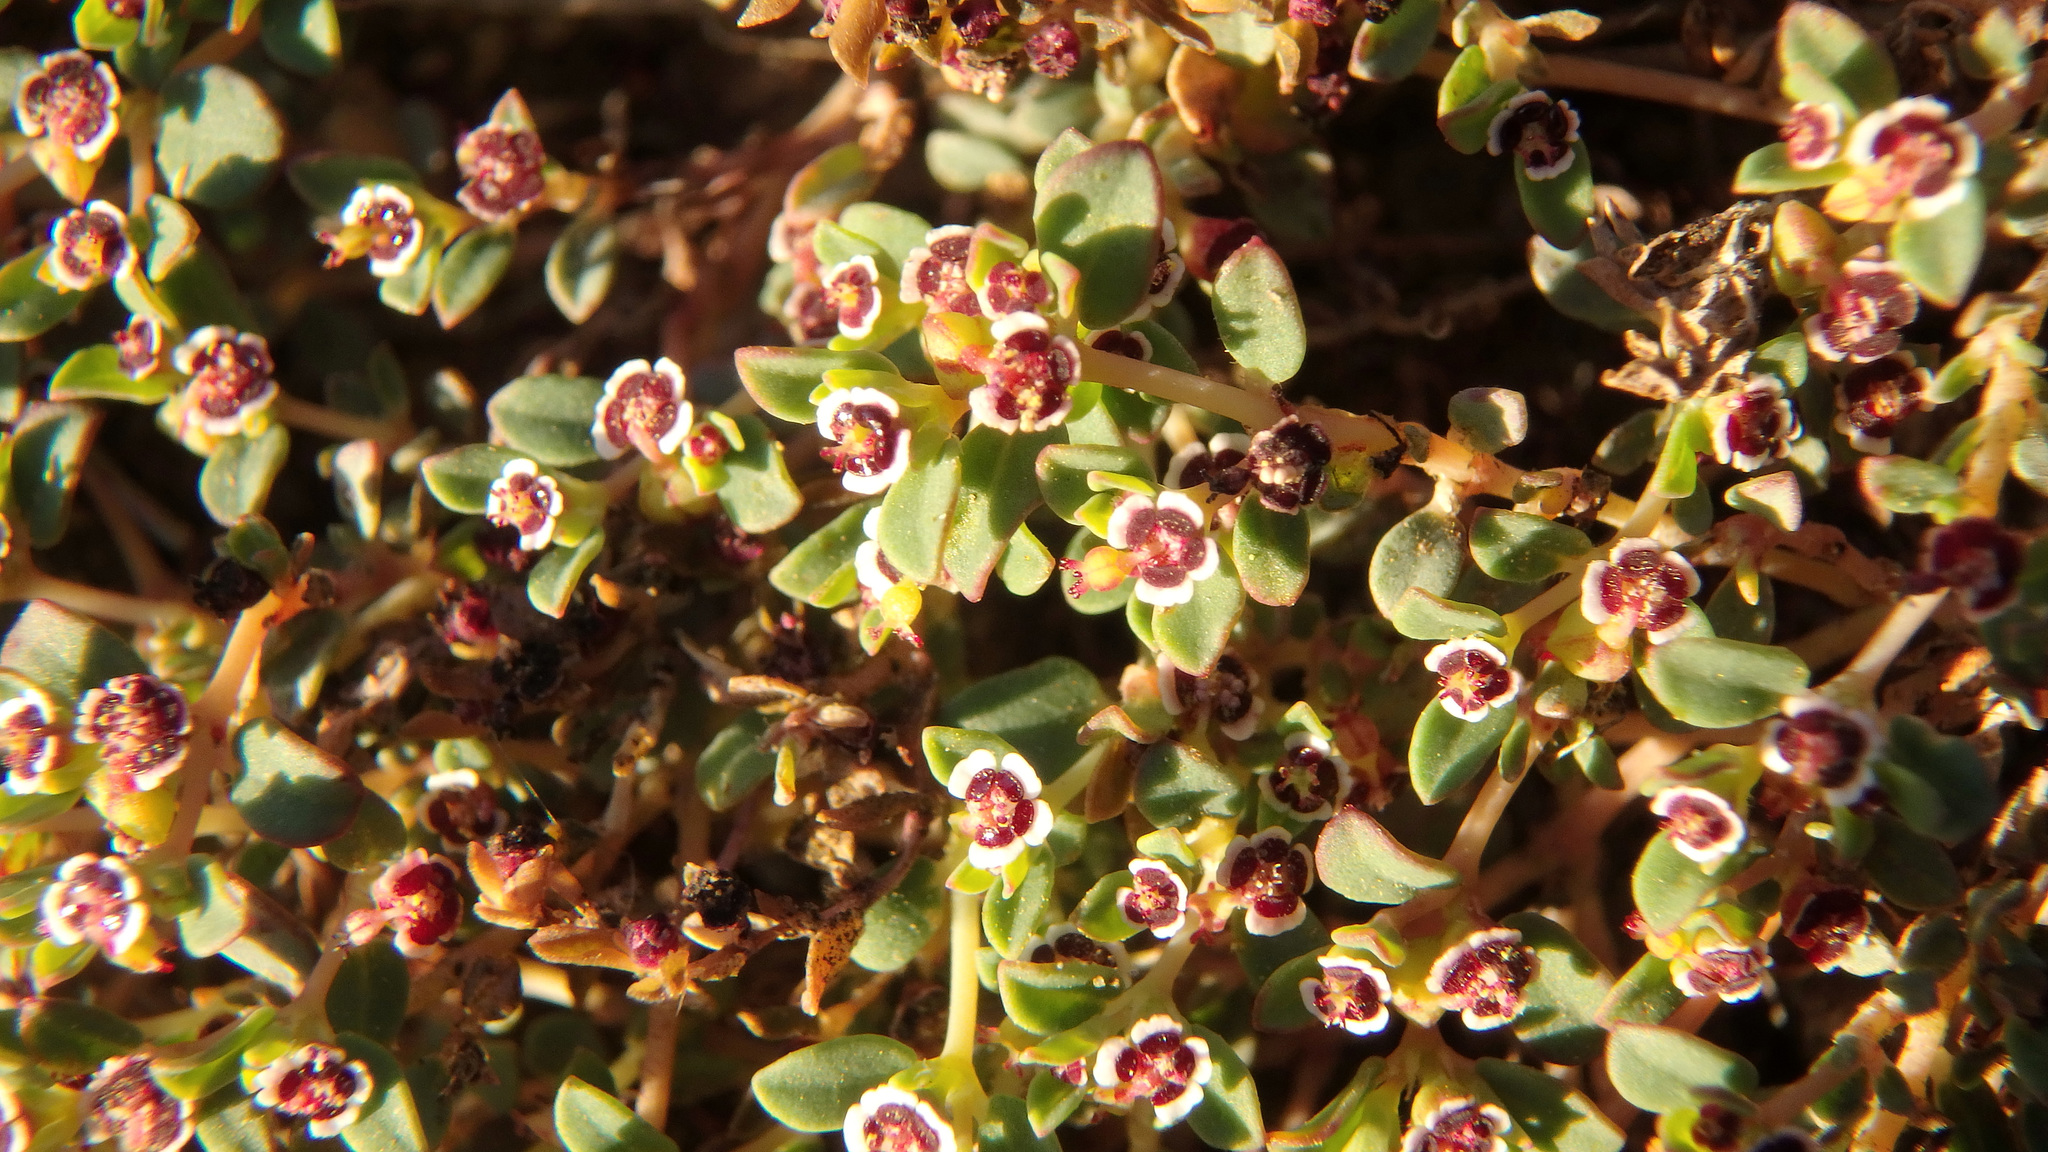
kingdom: Plantae
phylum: Tracheophyta
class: Magnoliopsida
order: Malpighiales
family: Euphorbiaceae
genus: Euphorbia
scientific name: Euphorbia polycarpa
